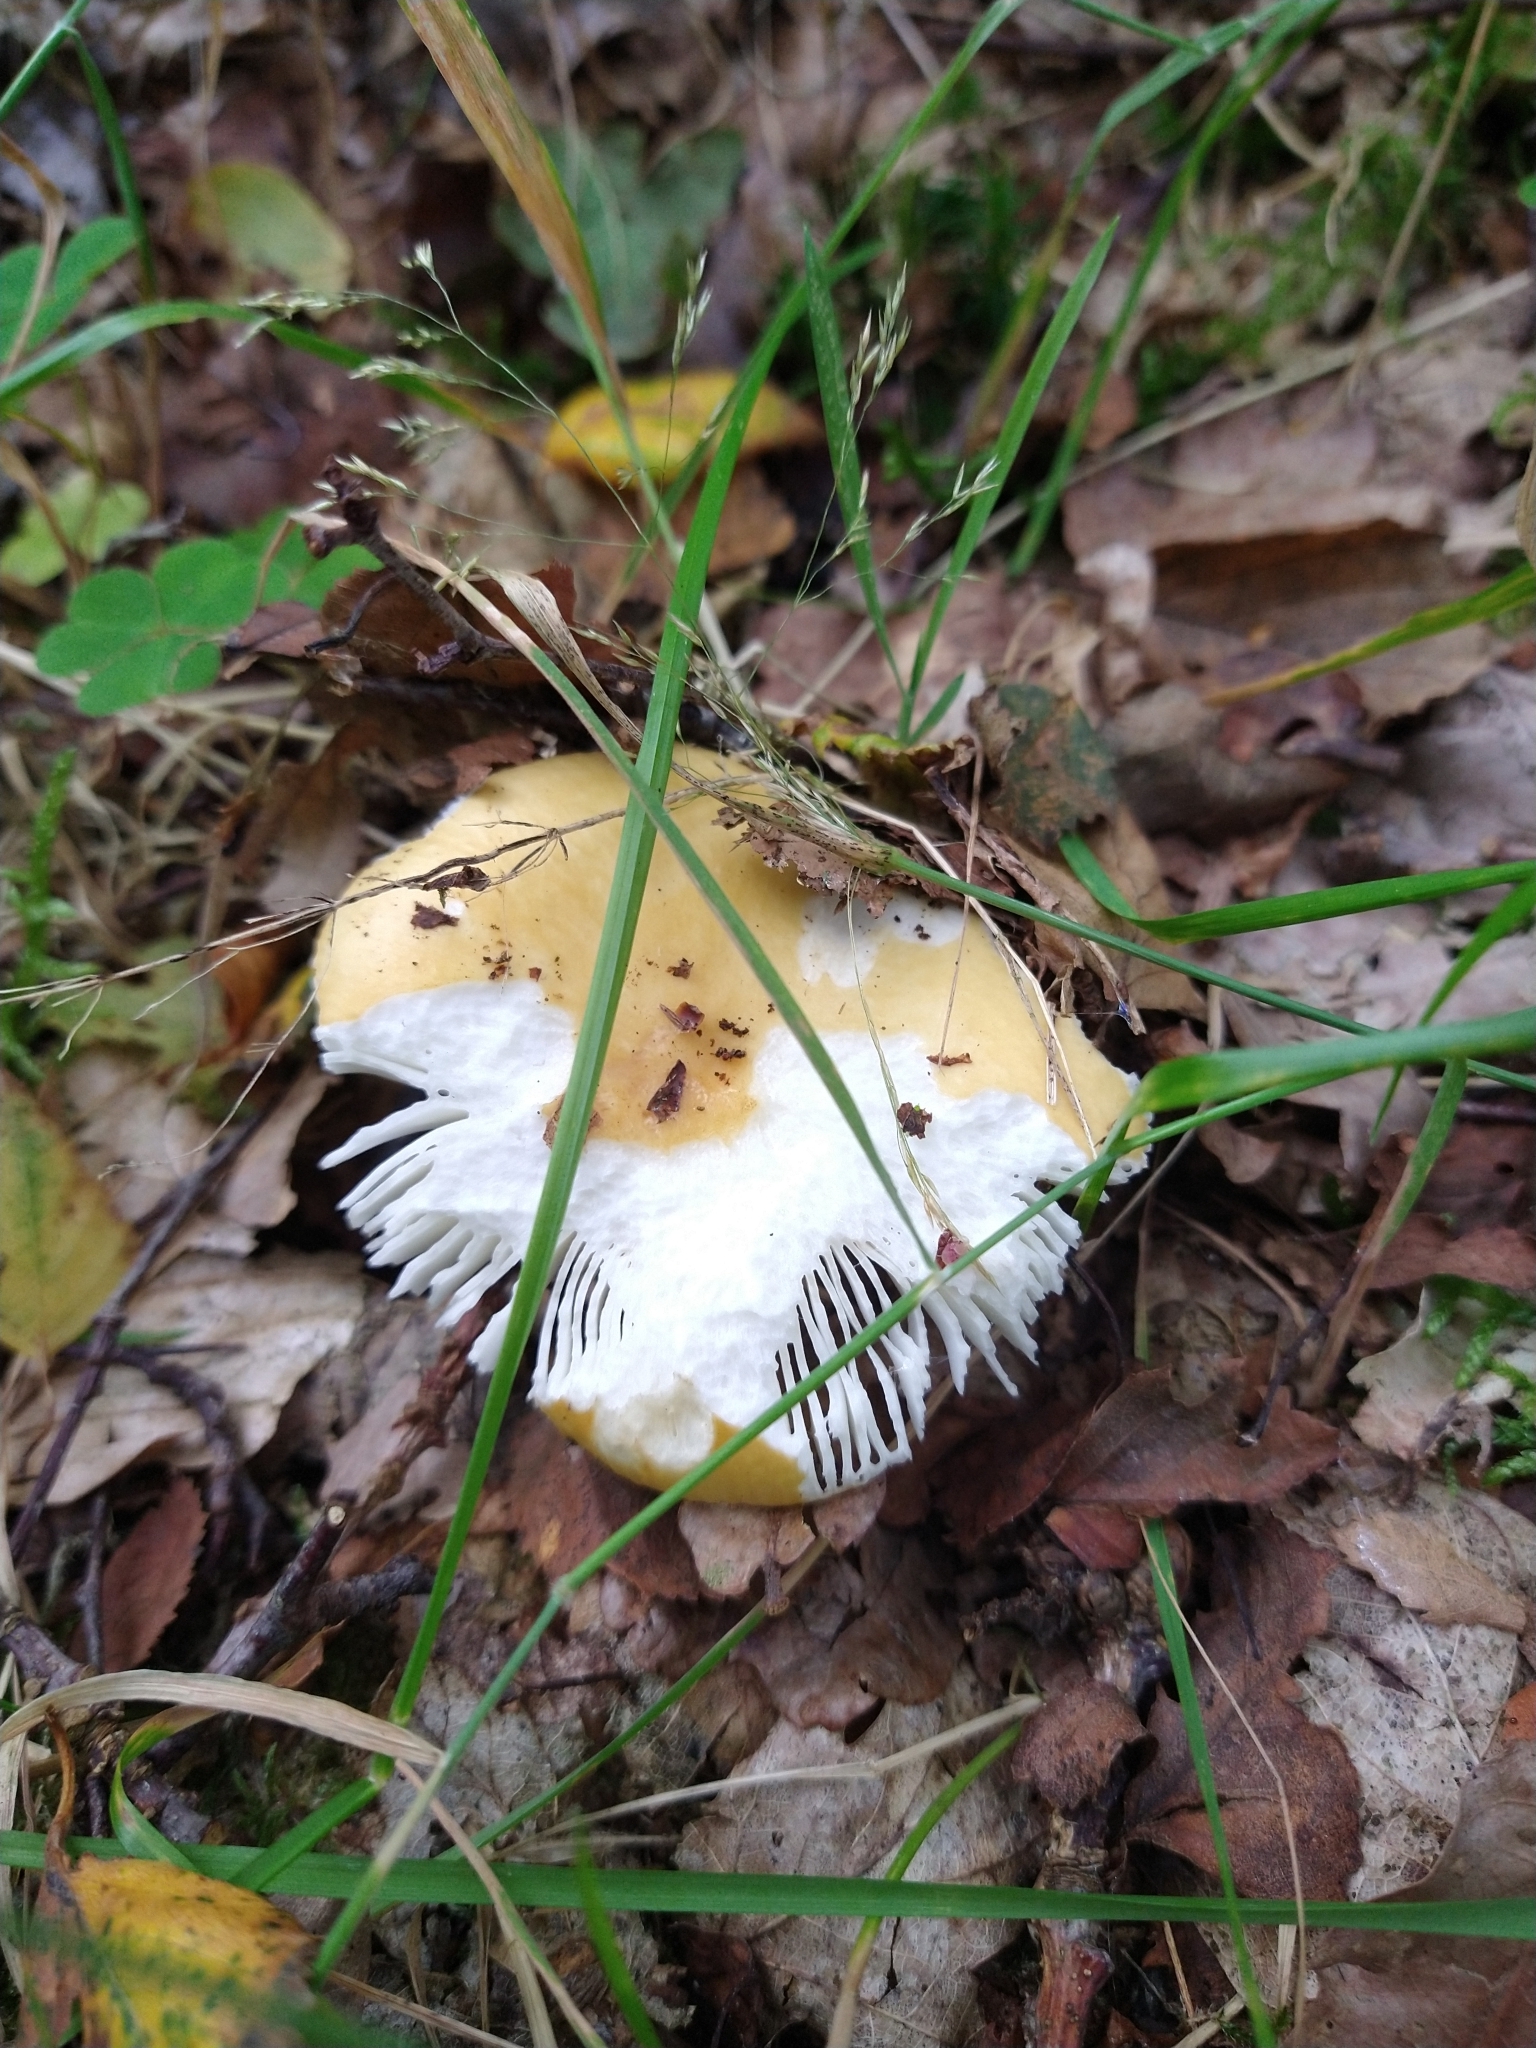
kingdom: Fungi
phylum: Basidiomycota
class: Agaricomycetes
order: Russulales
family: Russulaceae
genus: Russula
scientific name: Russula ochroleuca
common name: Common yellow russula
